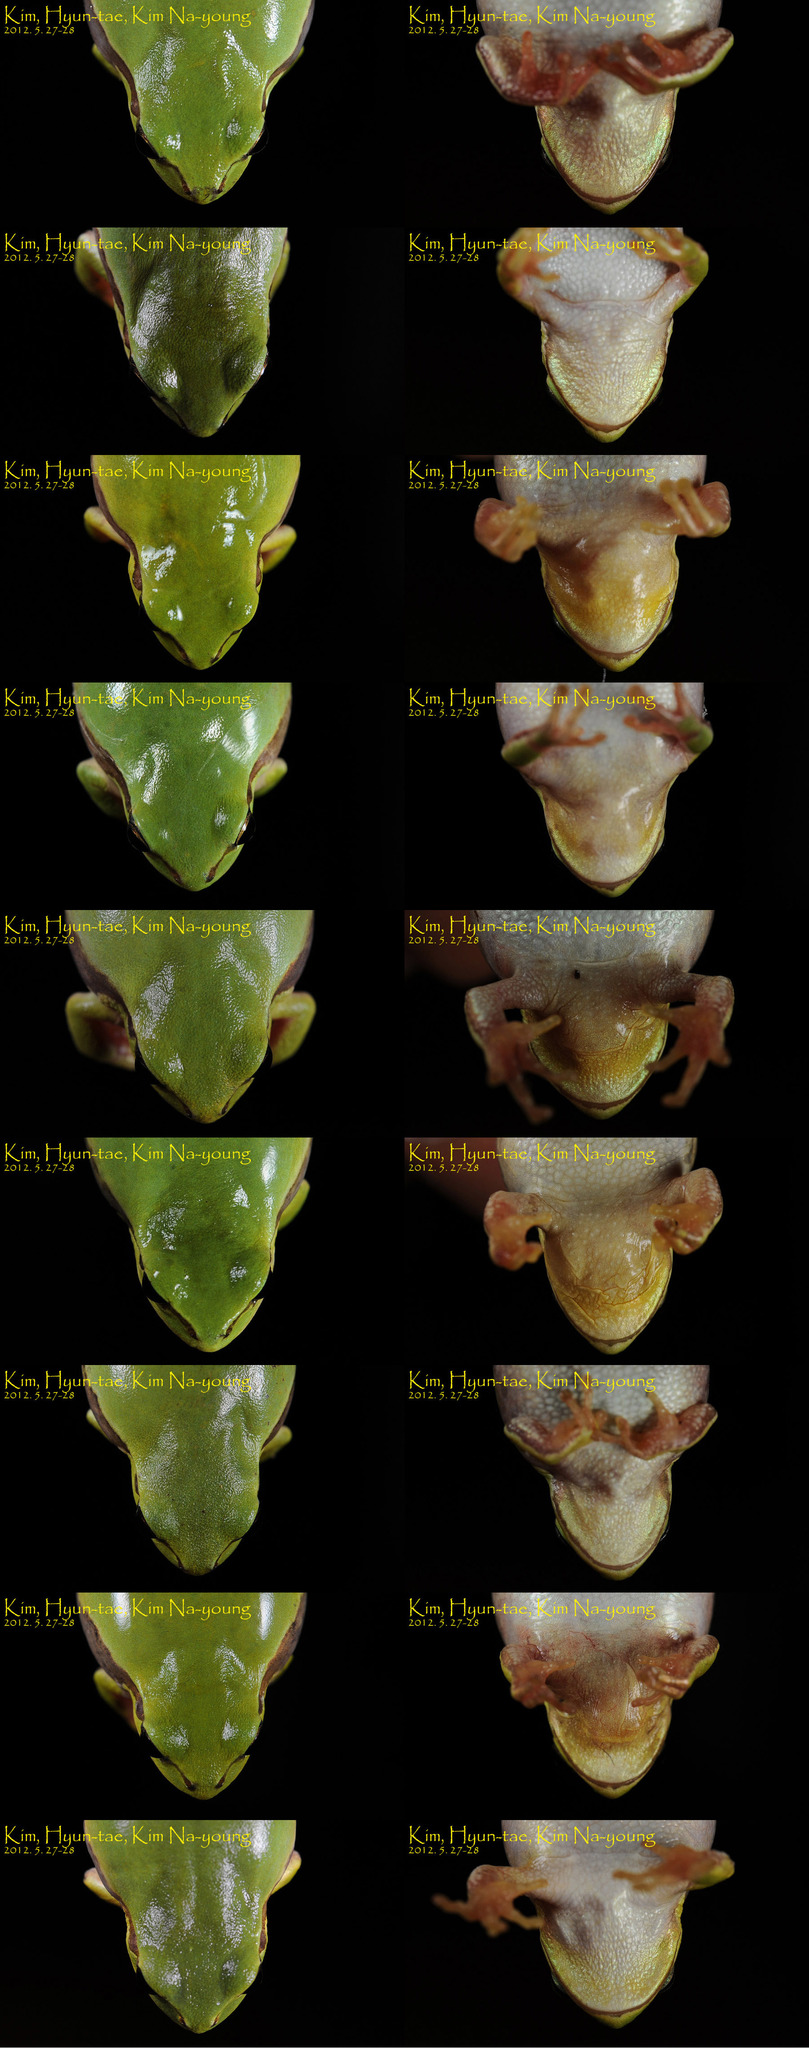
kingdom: Animalia
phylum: Chordata
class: Amphibia
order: Anura
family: Hylidae
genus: Dryophytes
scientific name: Dryophytes japonicus
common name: Japanese treefrog
